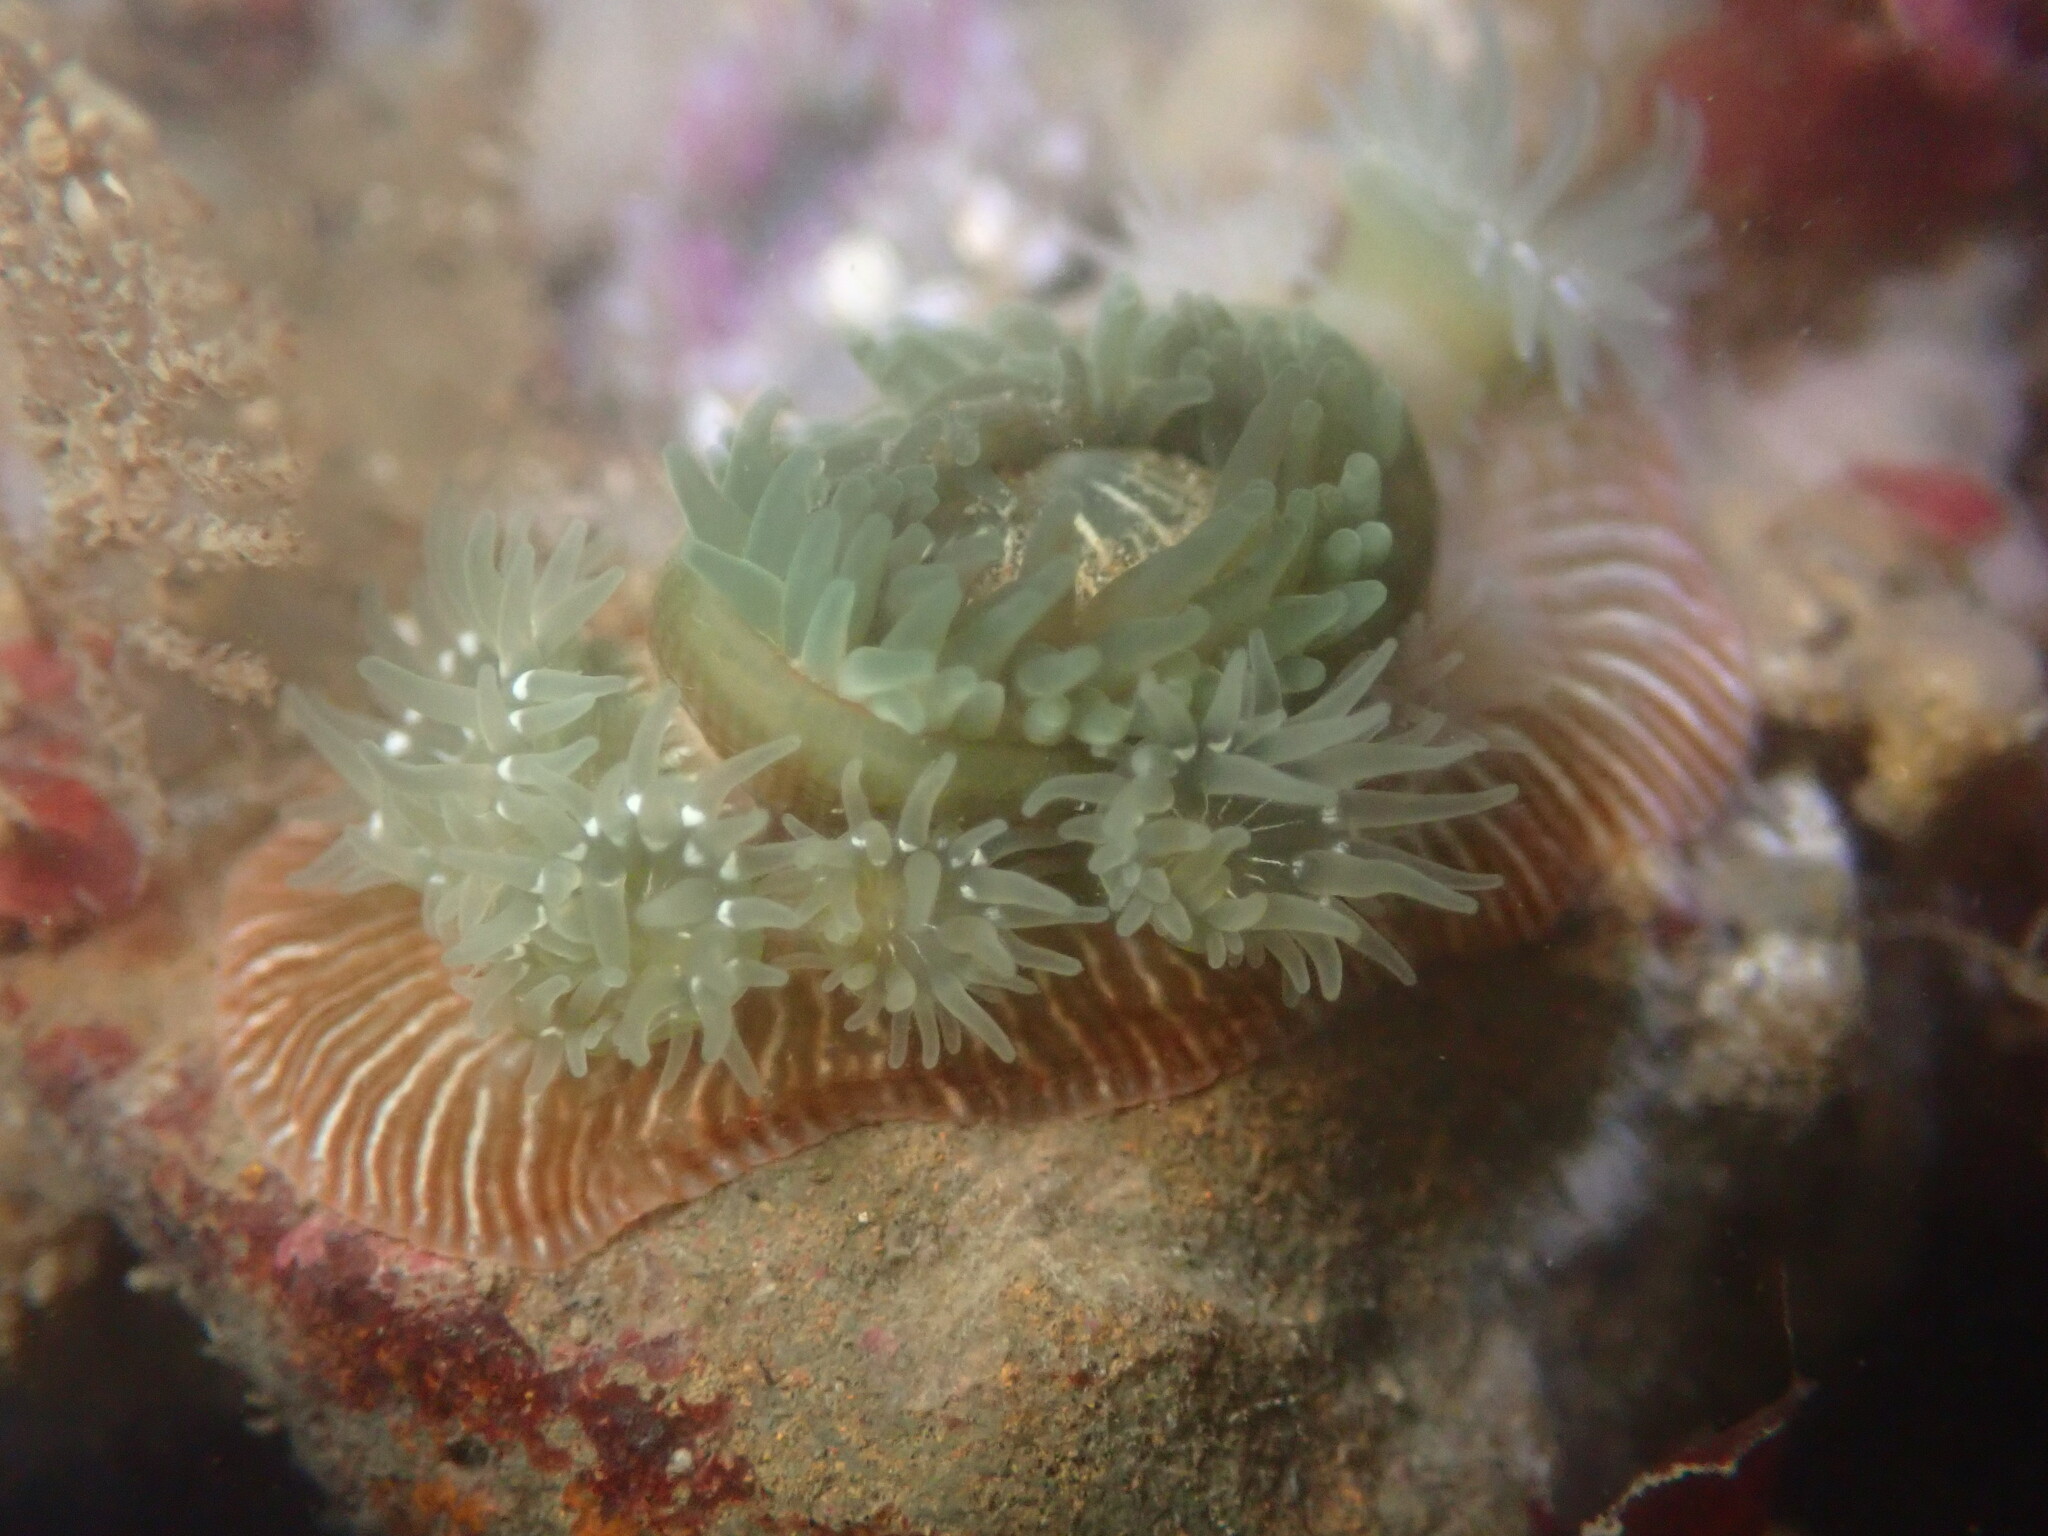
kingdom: Animalia
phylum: Cnidaria
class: Anthozoa
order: Actiniaria
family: Actiniidae
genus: Epiactis
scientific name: Epiactis prolifera
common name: Brooding anemone
